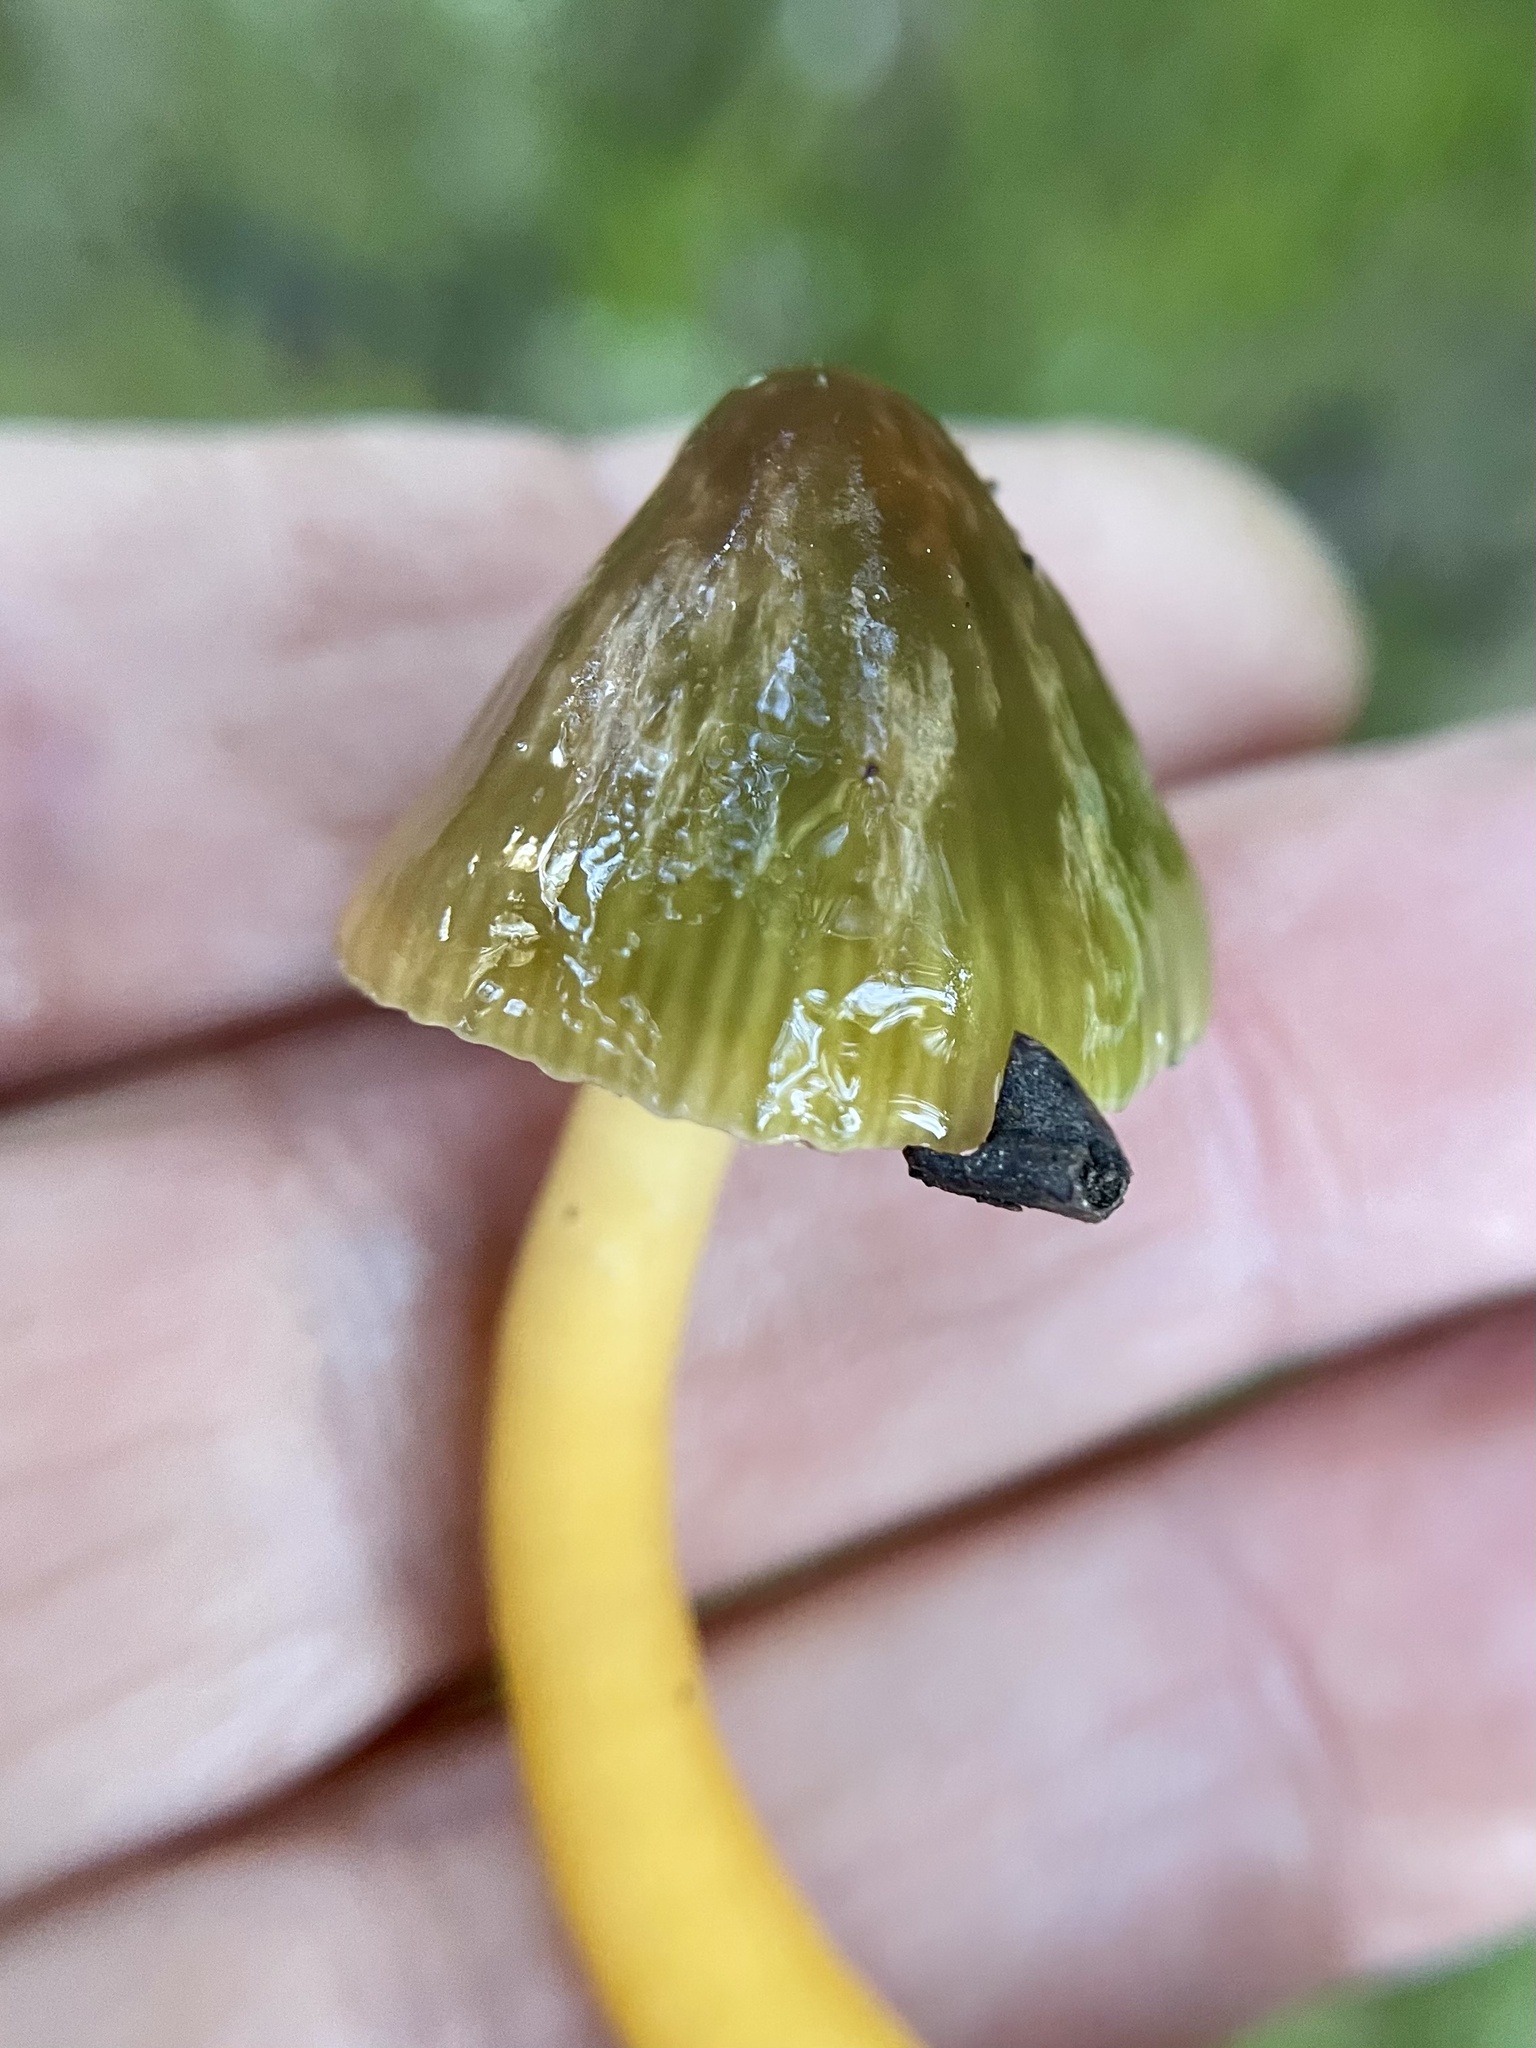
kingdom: Fungi
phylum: Basidiomycota
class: Agaricomycetes
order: Agaricales
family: Hygrophoraceae
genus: Gliophorus
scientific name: Gliophorus psittacinus
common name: Parrot wax-cap
